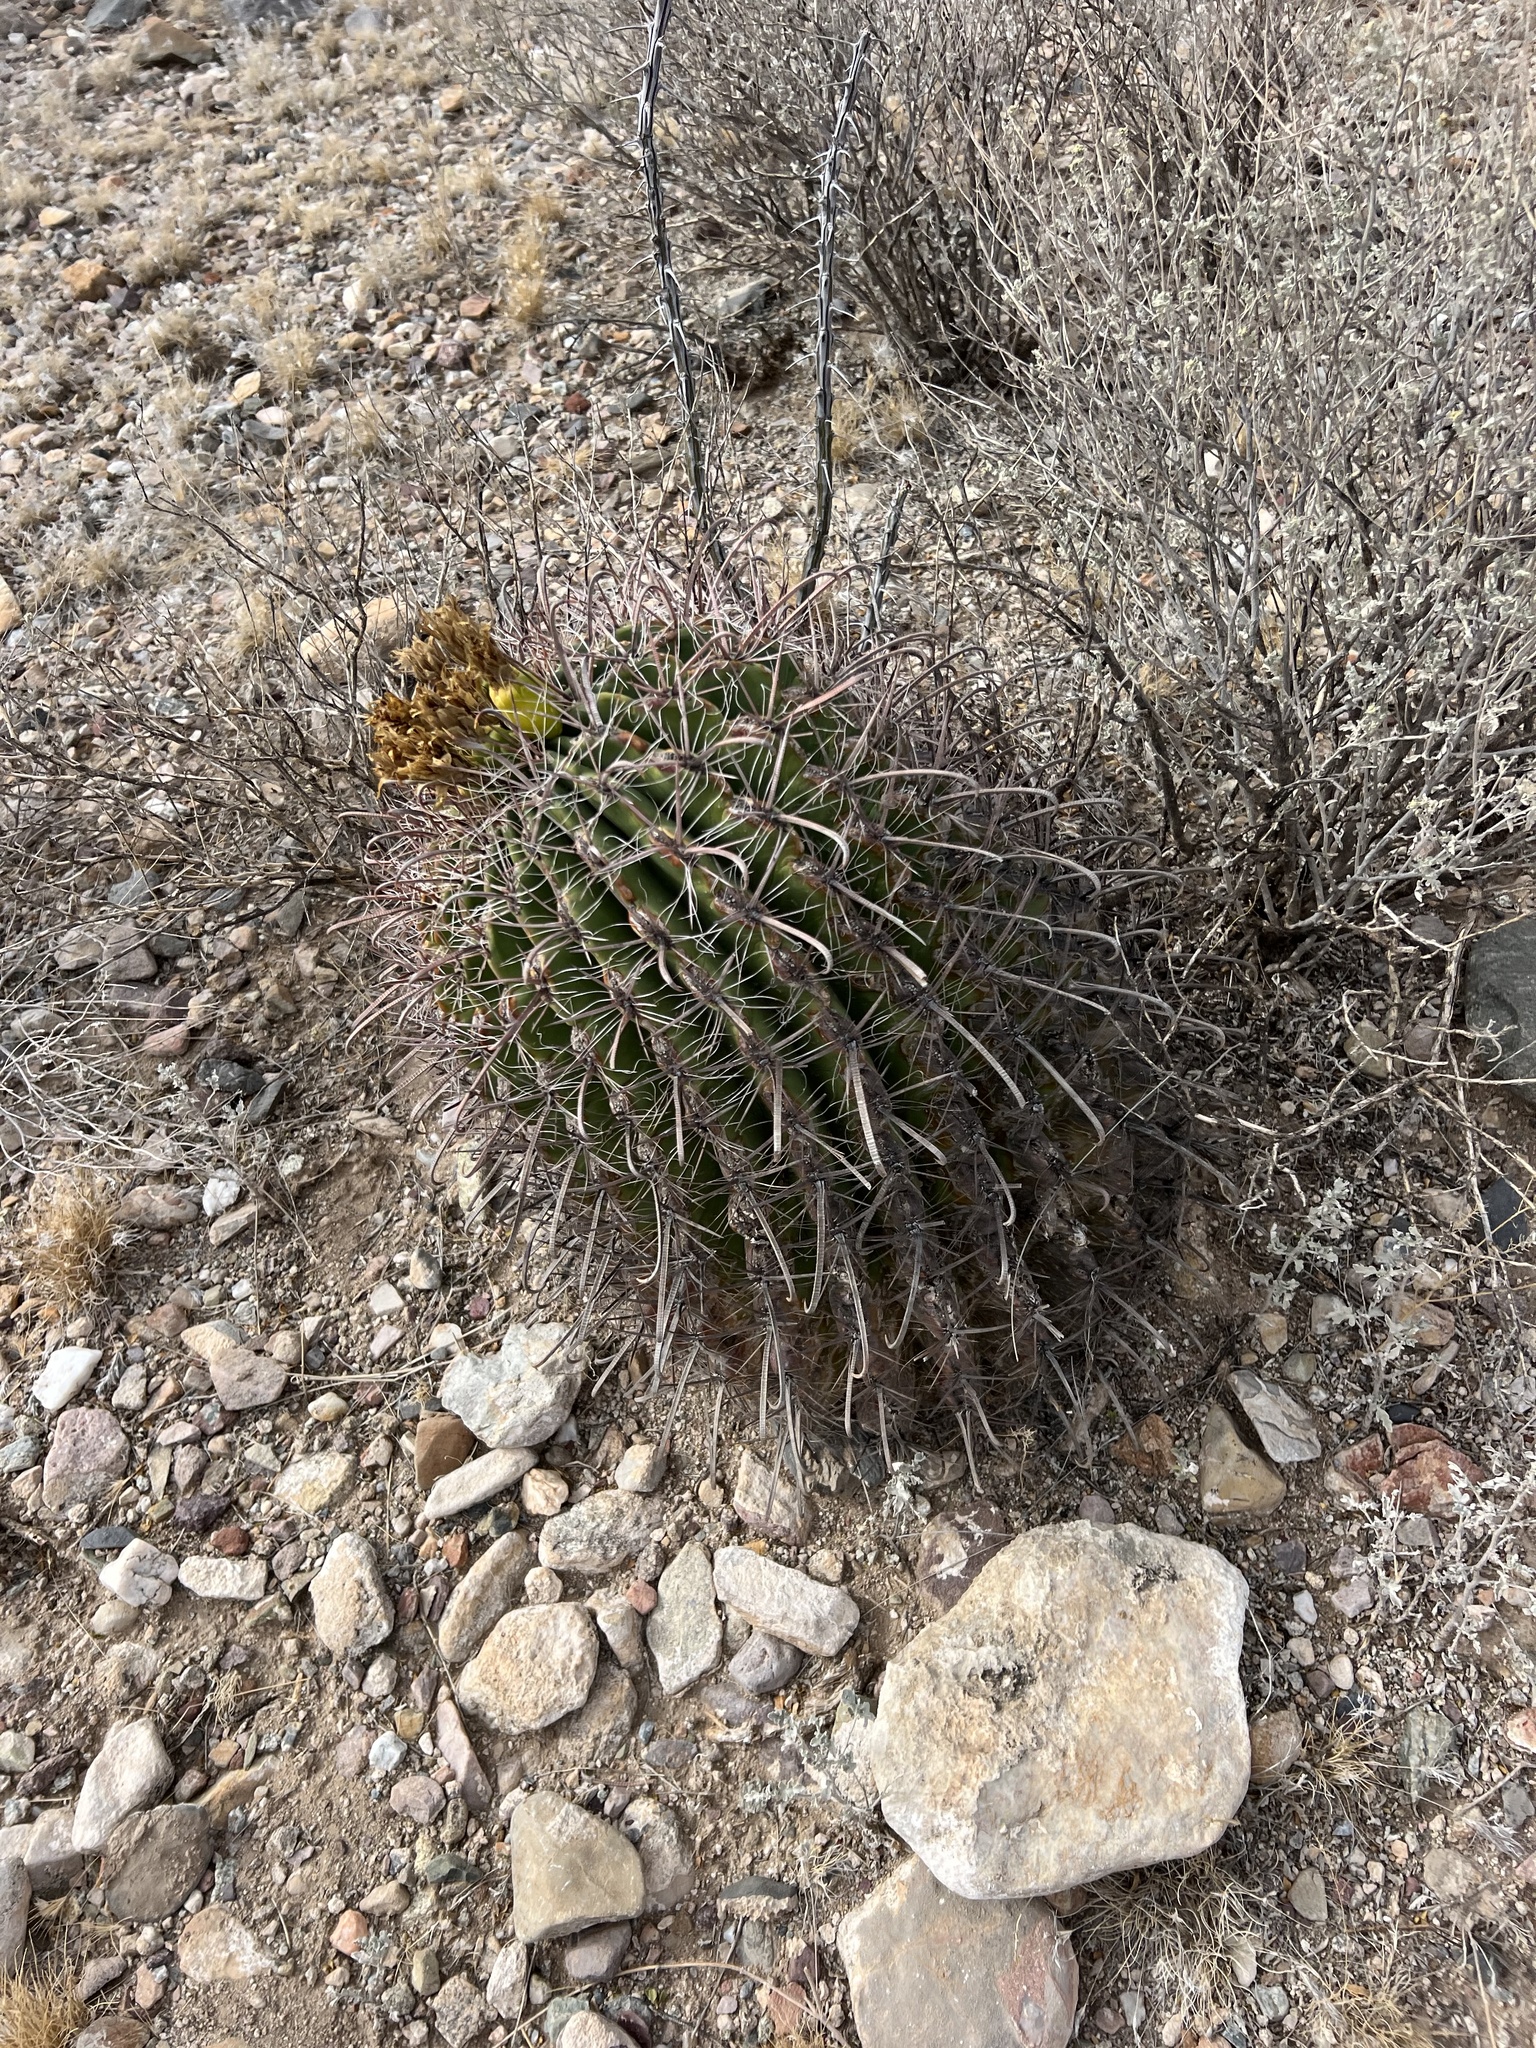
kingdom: Plantae
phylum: Tracheophyta
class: Magnoliopsida
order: Caryophyllales
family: Cactaceae
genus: Ferocactus
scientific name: Ferocactus wislizeni
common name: Candy barrel cactus
